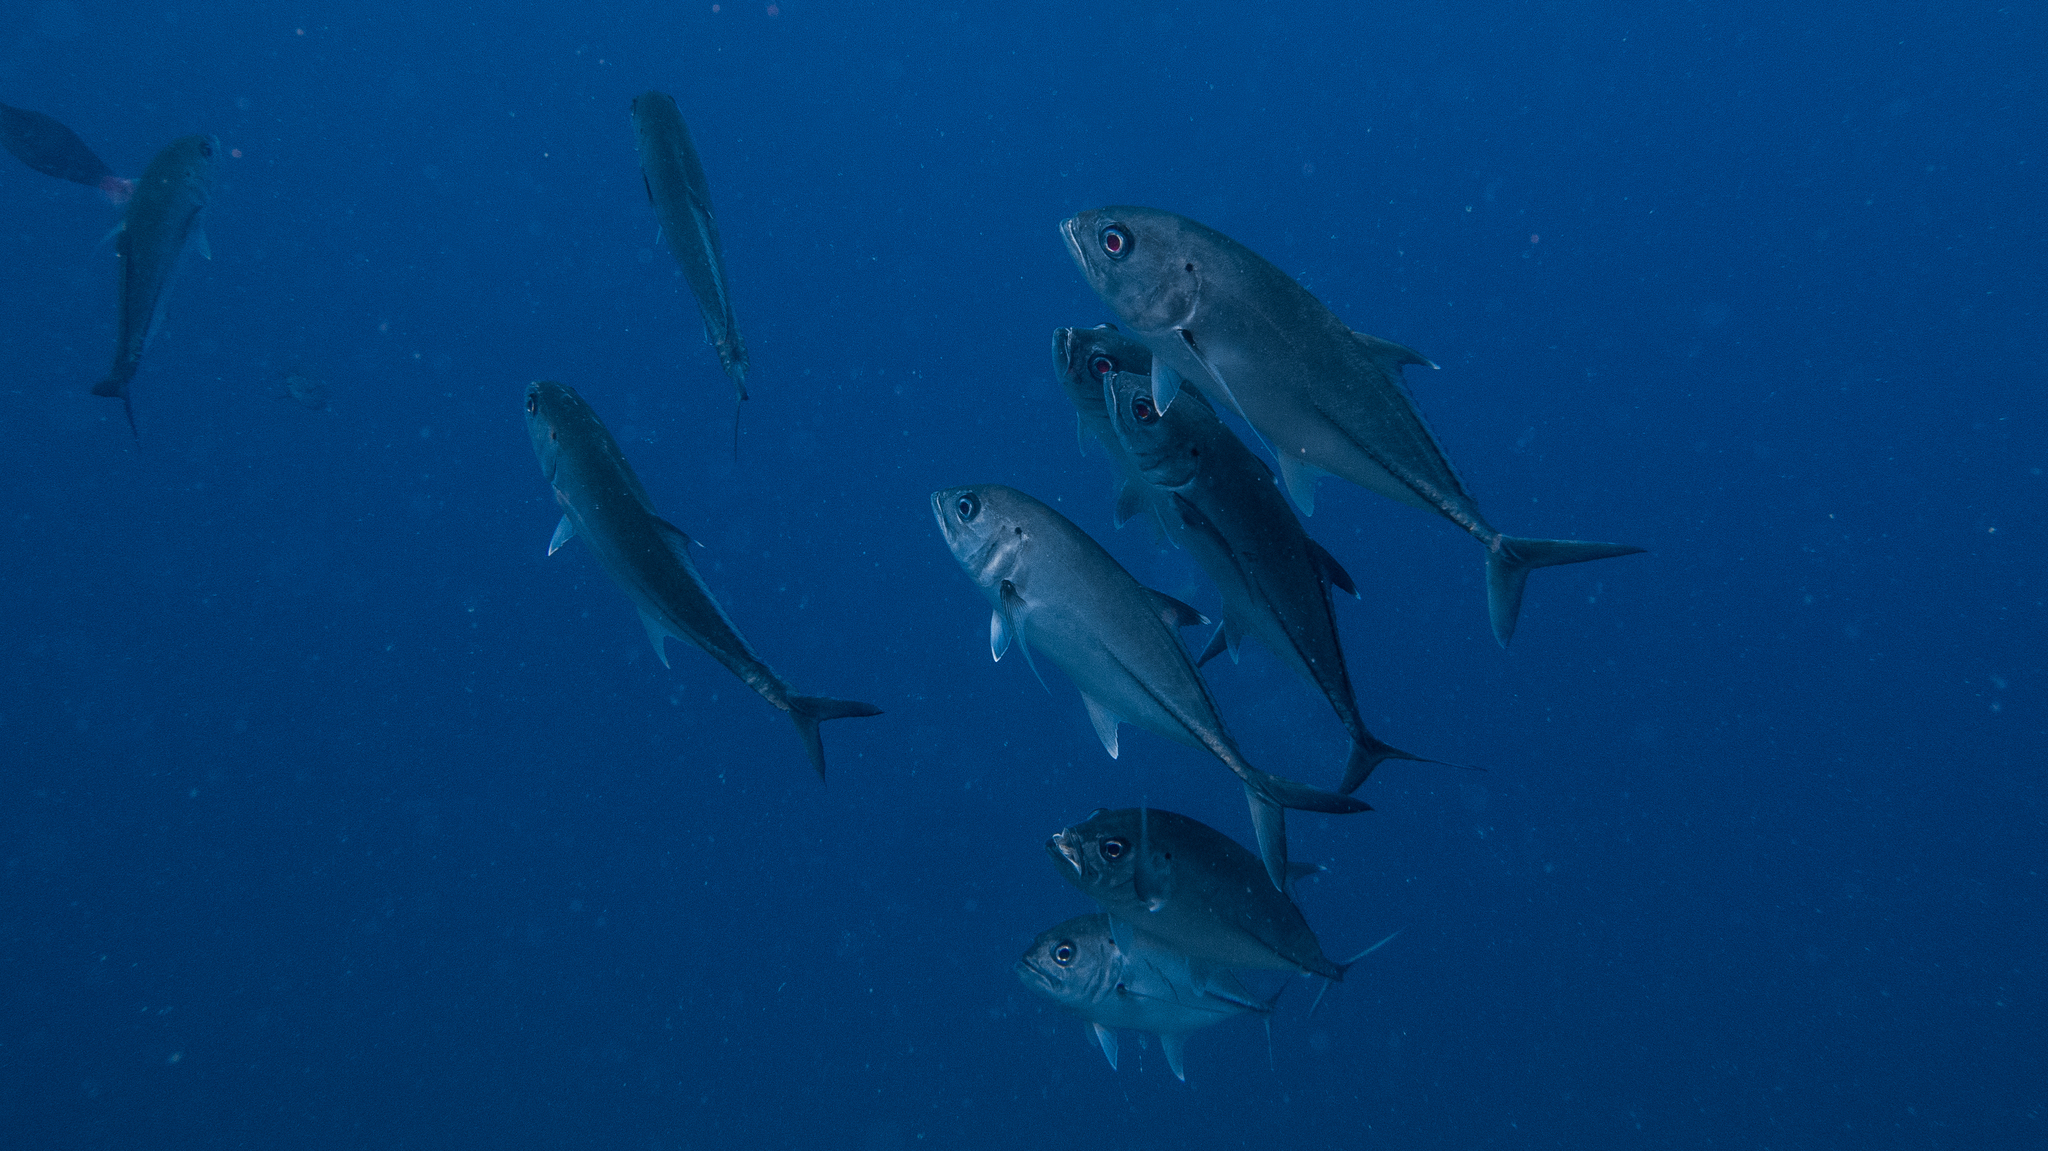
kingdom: Animalia
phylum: Chordata
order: Perciformes
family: Carangidae
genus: Caranx
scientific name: Caranx sexfasciatus
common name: Bigeye trevally
